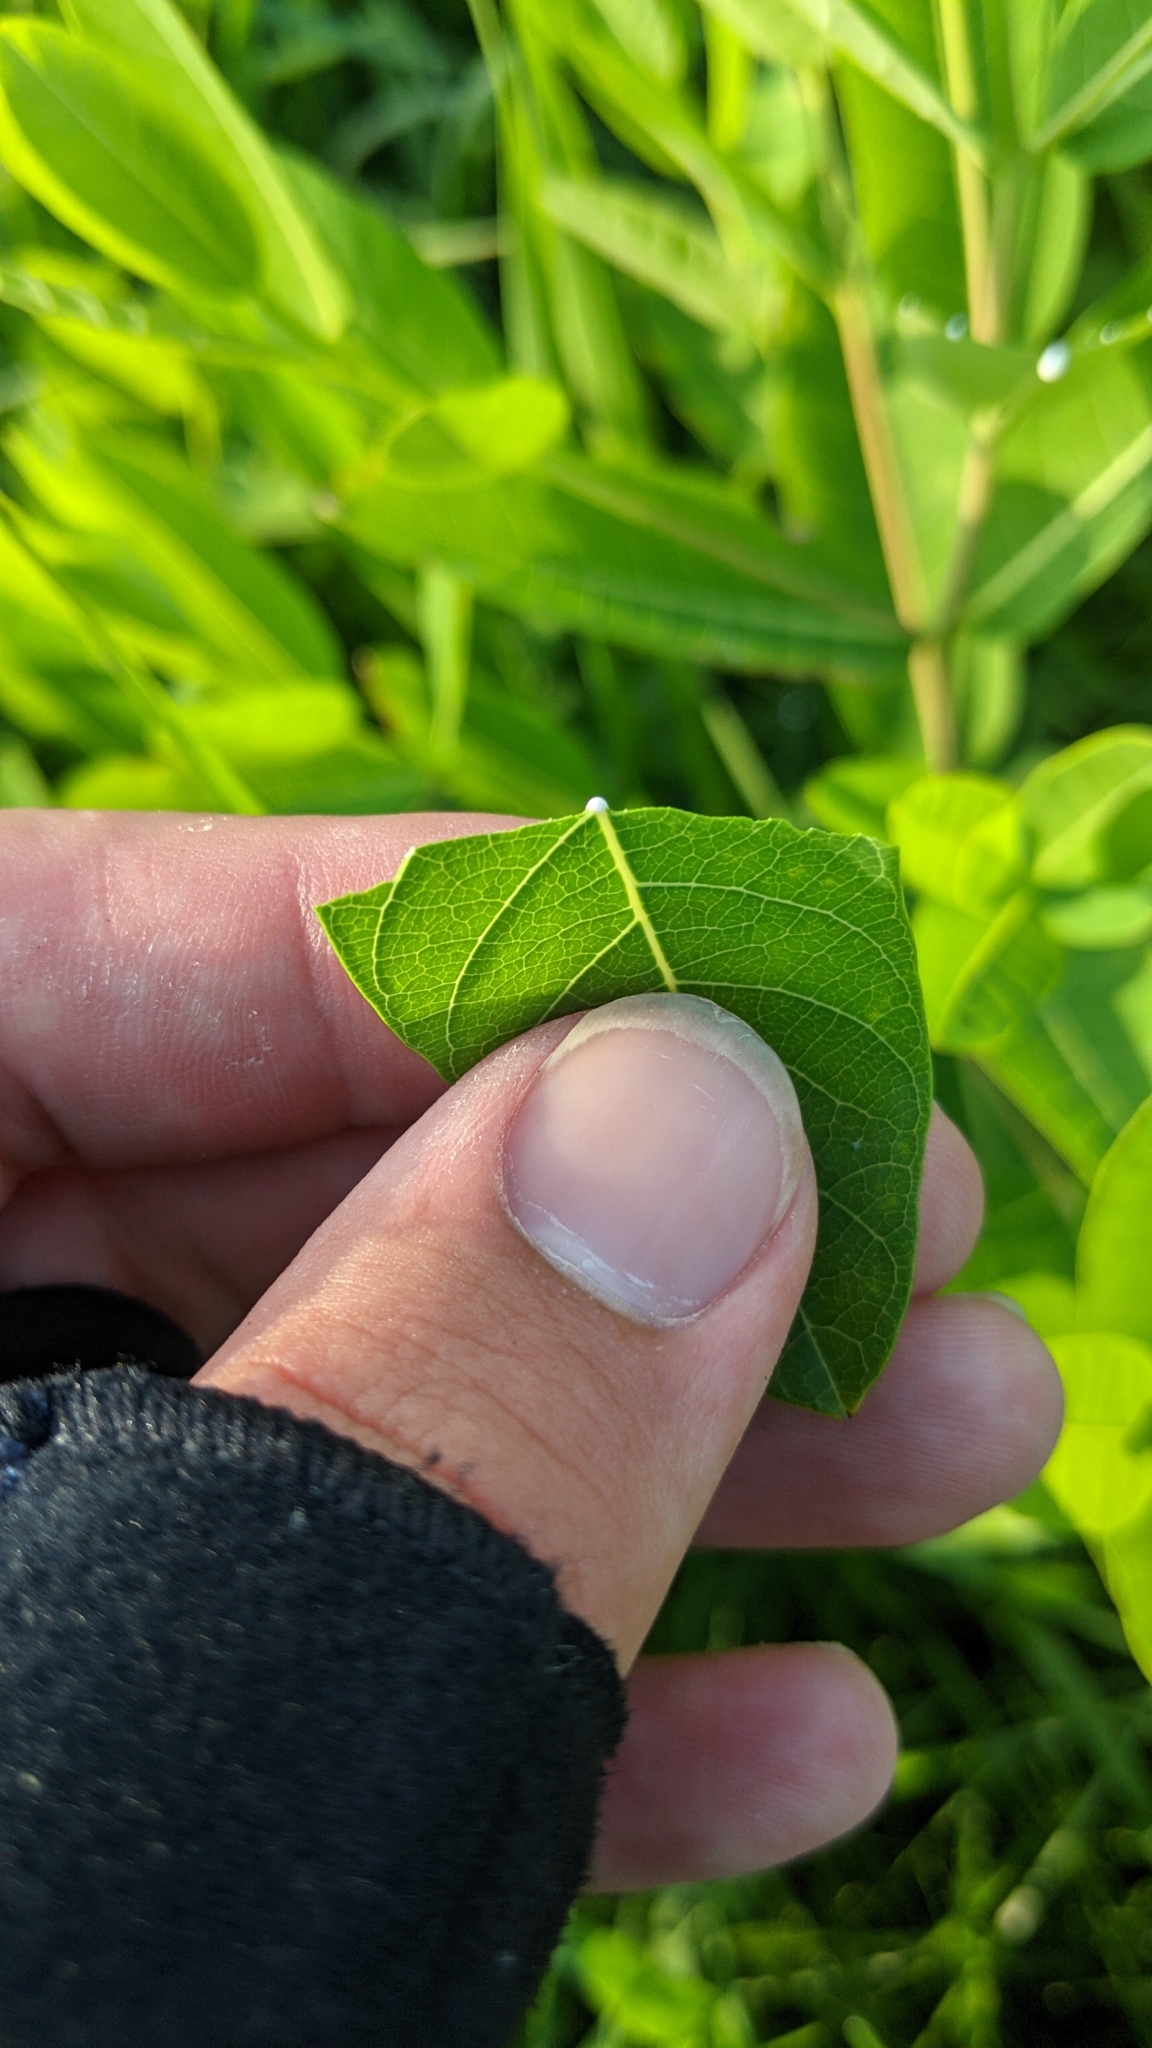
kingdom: Plantae
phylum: Tracheophyta
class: Magnoliopsida
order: Gentianales
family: Apocynaceae
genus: Apocynum
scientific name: Apocynum cannabinum
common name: Hemp dogbane
